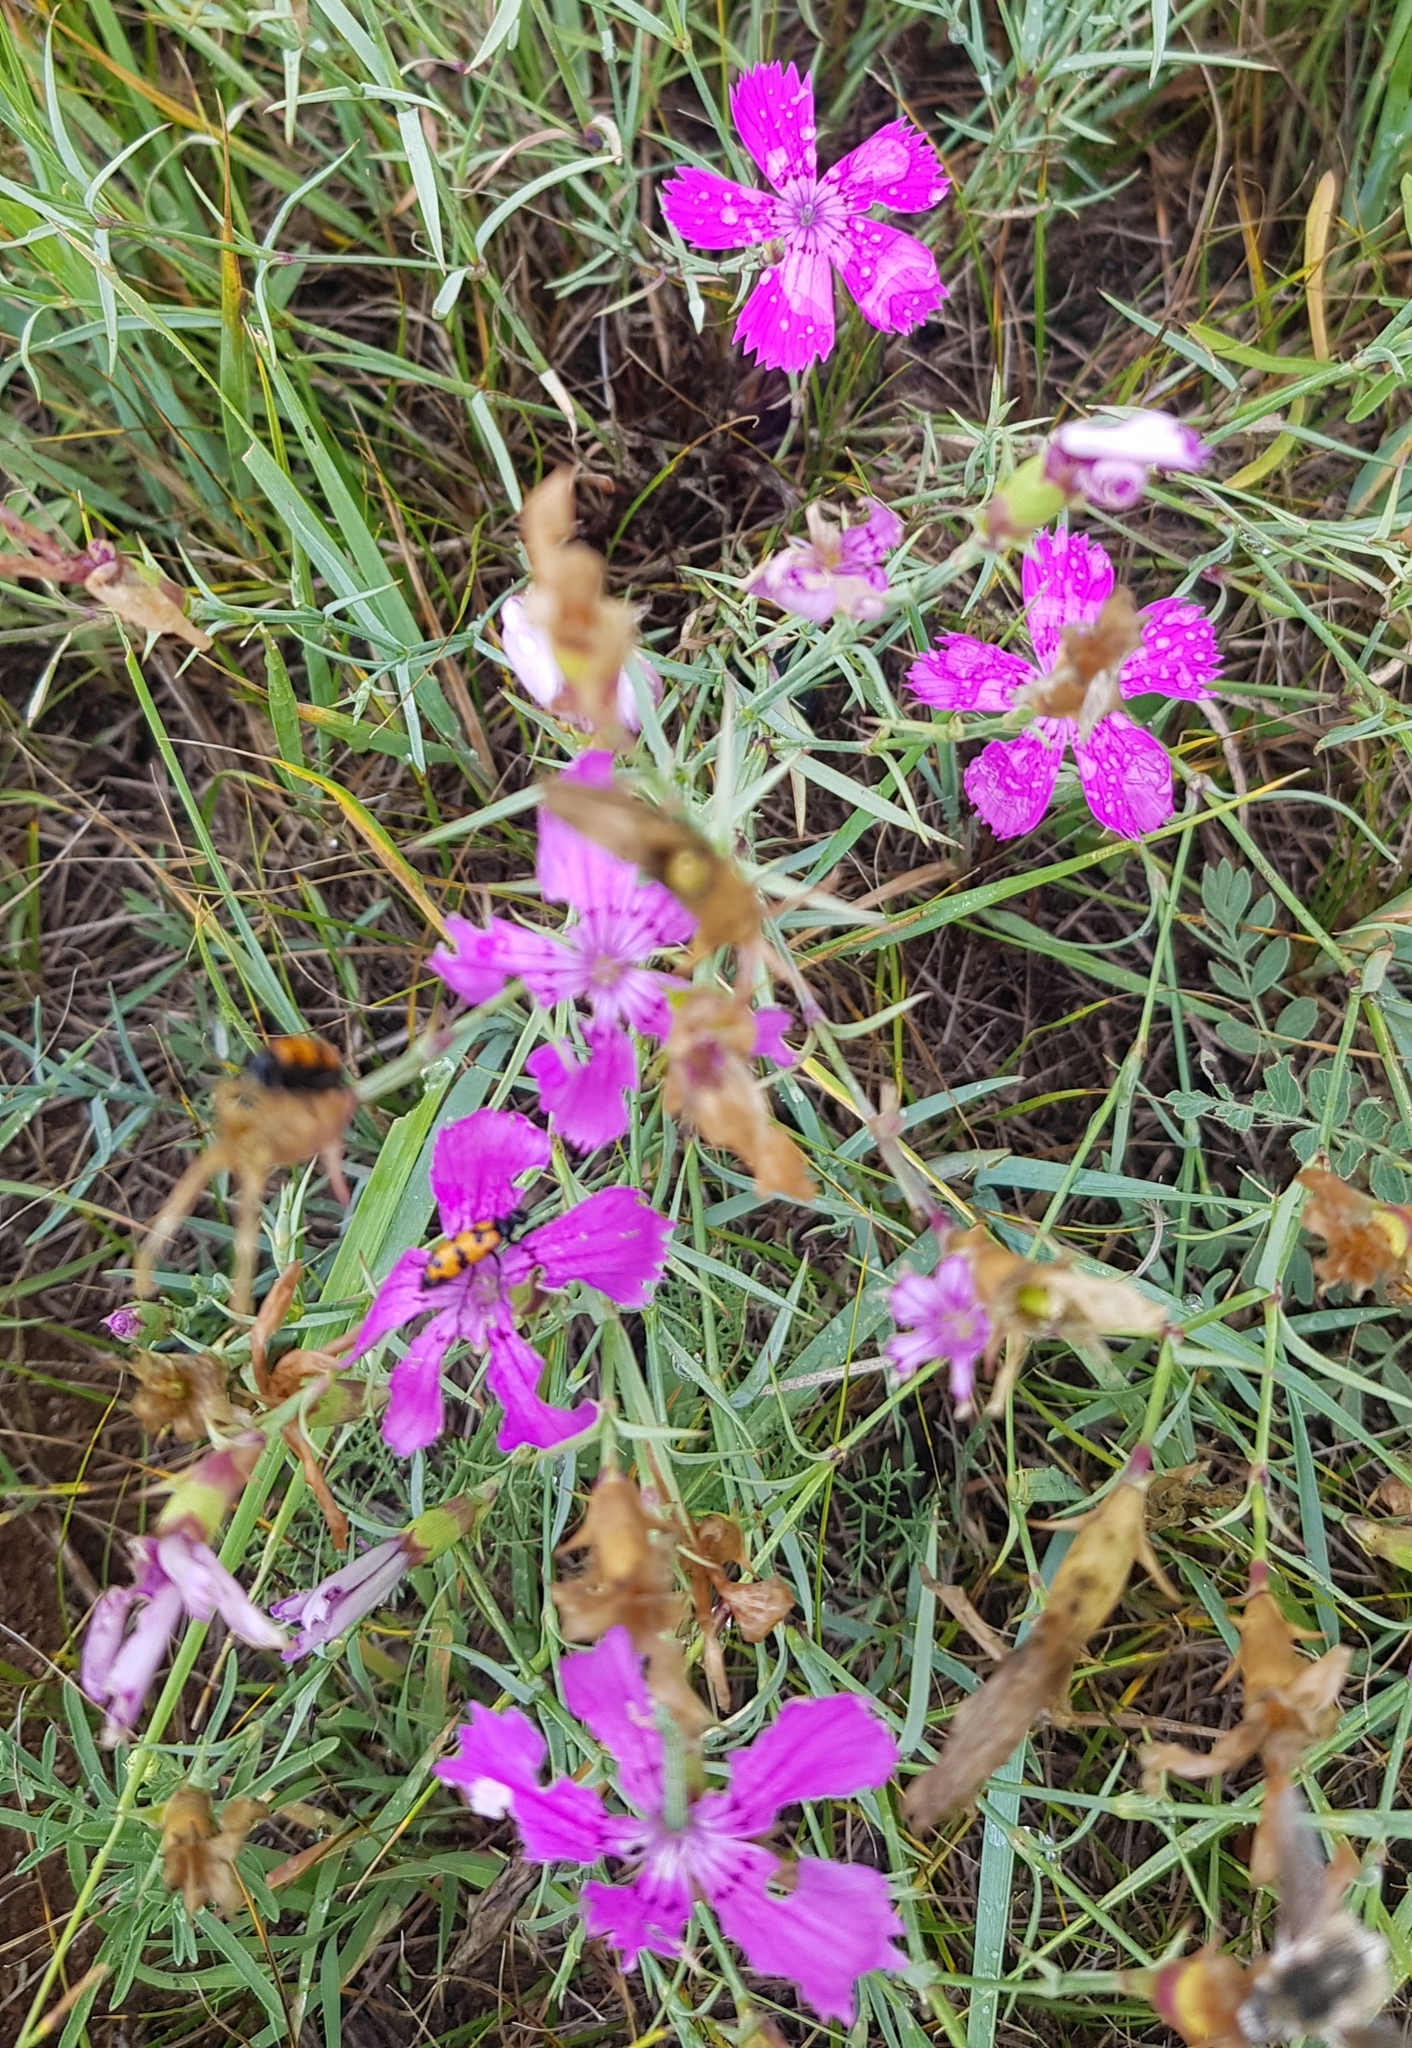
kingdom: Plantae
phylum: Tracheophyta
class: Magnoliopsida
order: Caryophyllales
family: Caryophyllaceae
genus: Dianthus
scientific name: Dianthus chinensis
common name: Rainbow pink
